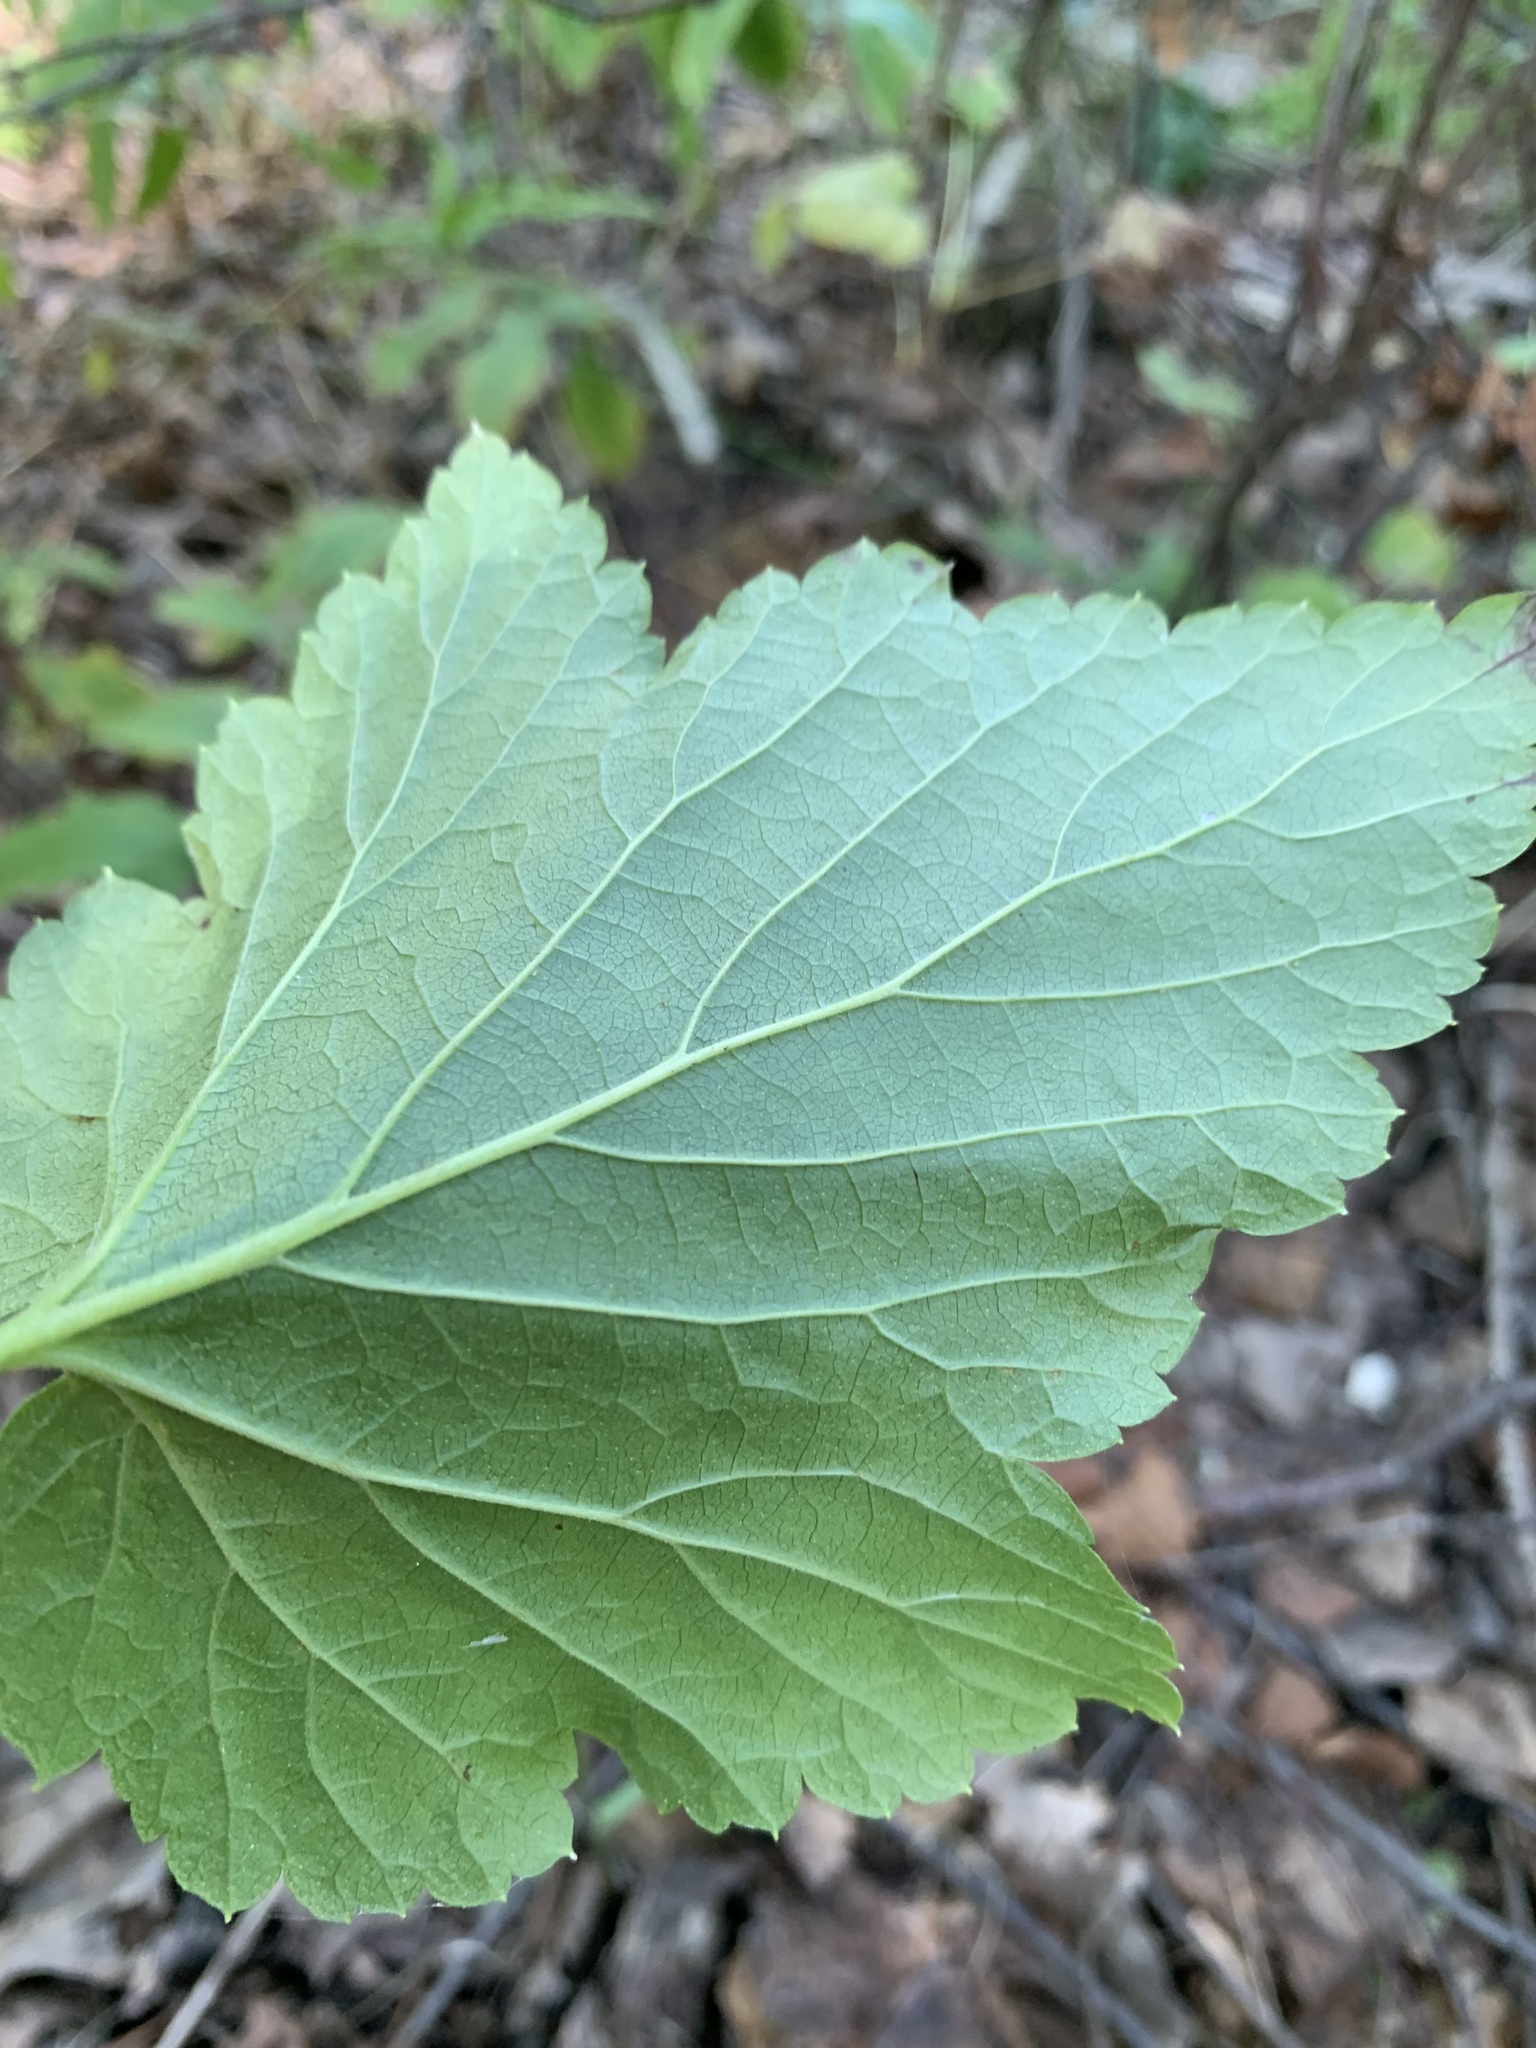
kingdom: Plantae
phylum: Tracheophyta
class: Magnoliopsida
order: Saxifragales
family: Grossulariaceae
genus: Ribes
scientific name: Ribes nigrum
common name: Black currant
